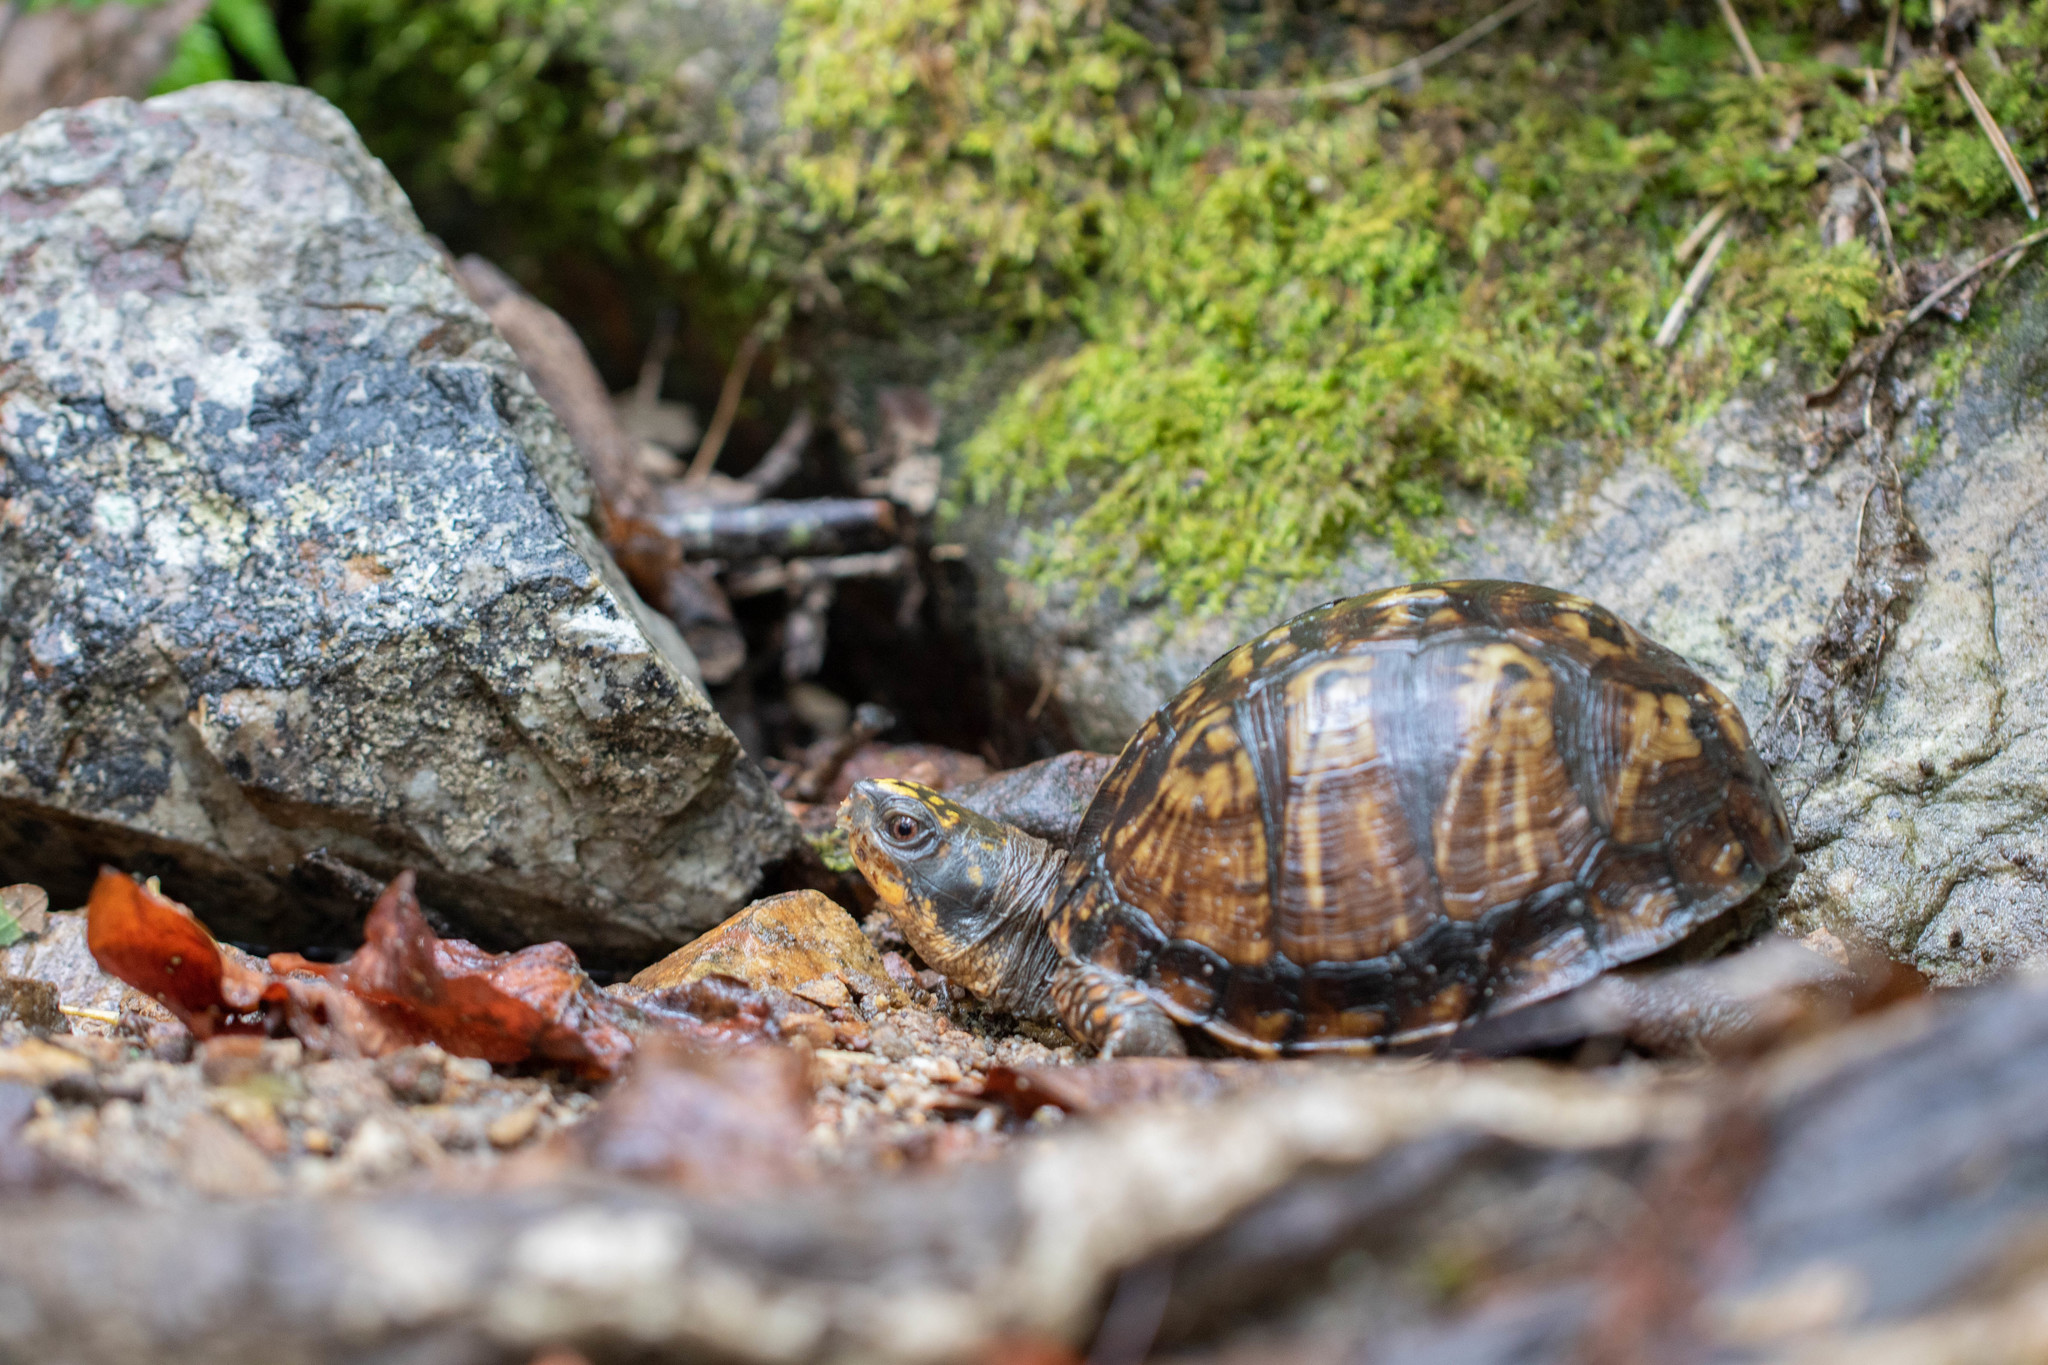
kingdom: Animalia
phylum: Chordata
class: Testudines
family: Emydidae
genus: Terrapene
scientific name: Terrapene carolina
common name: Common box turtle
